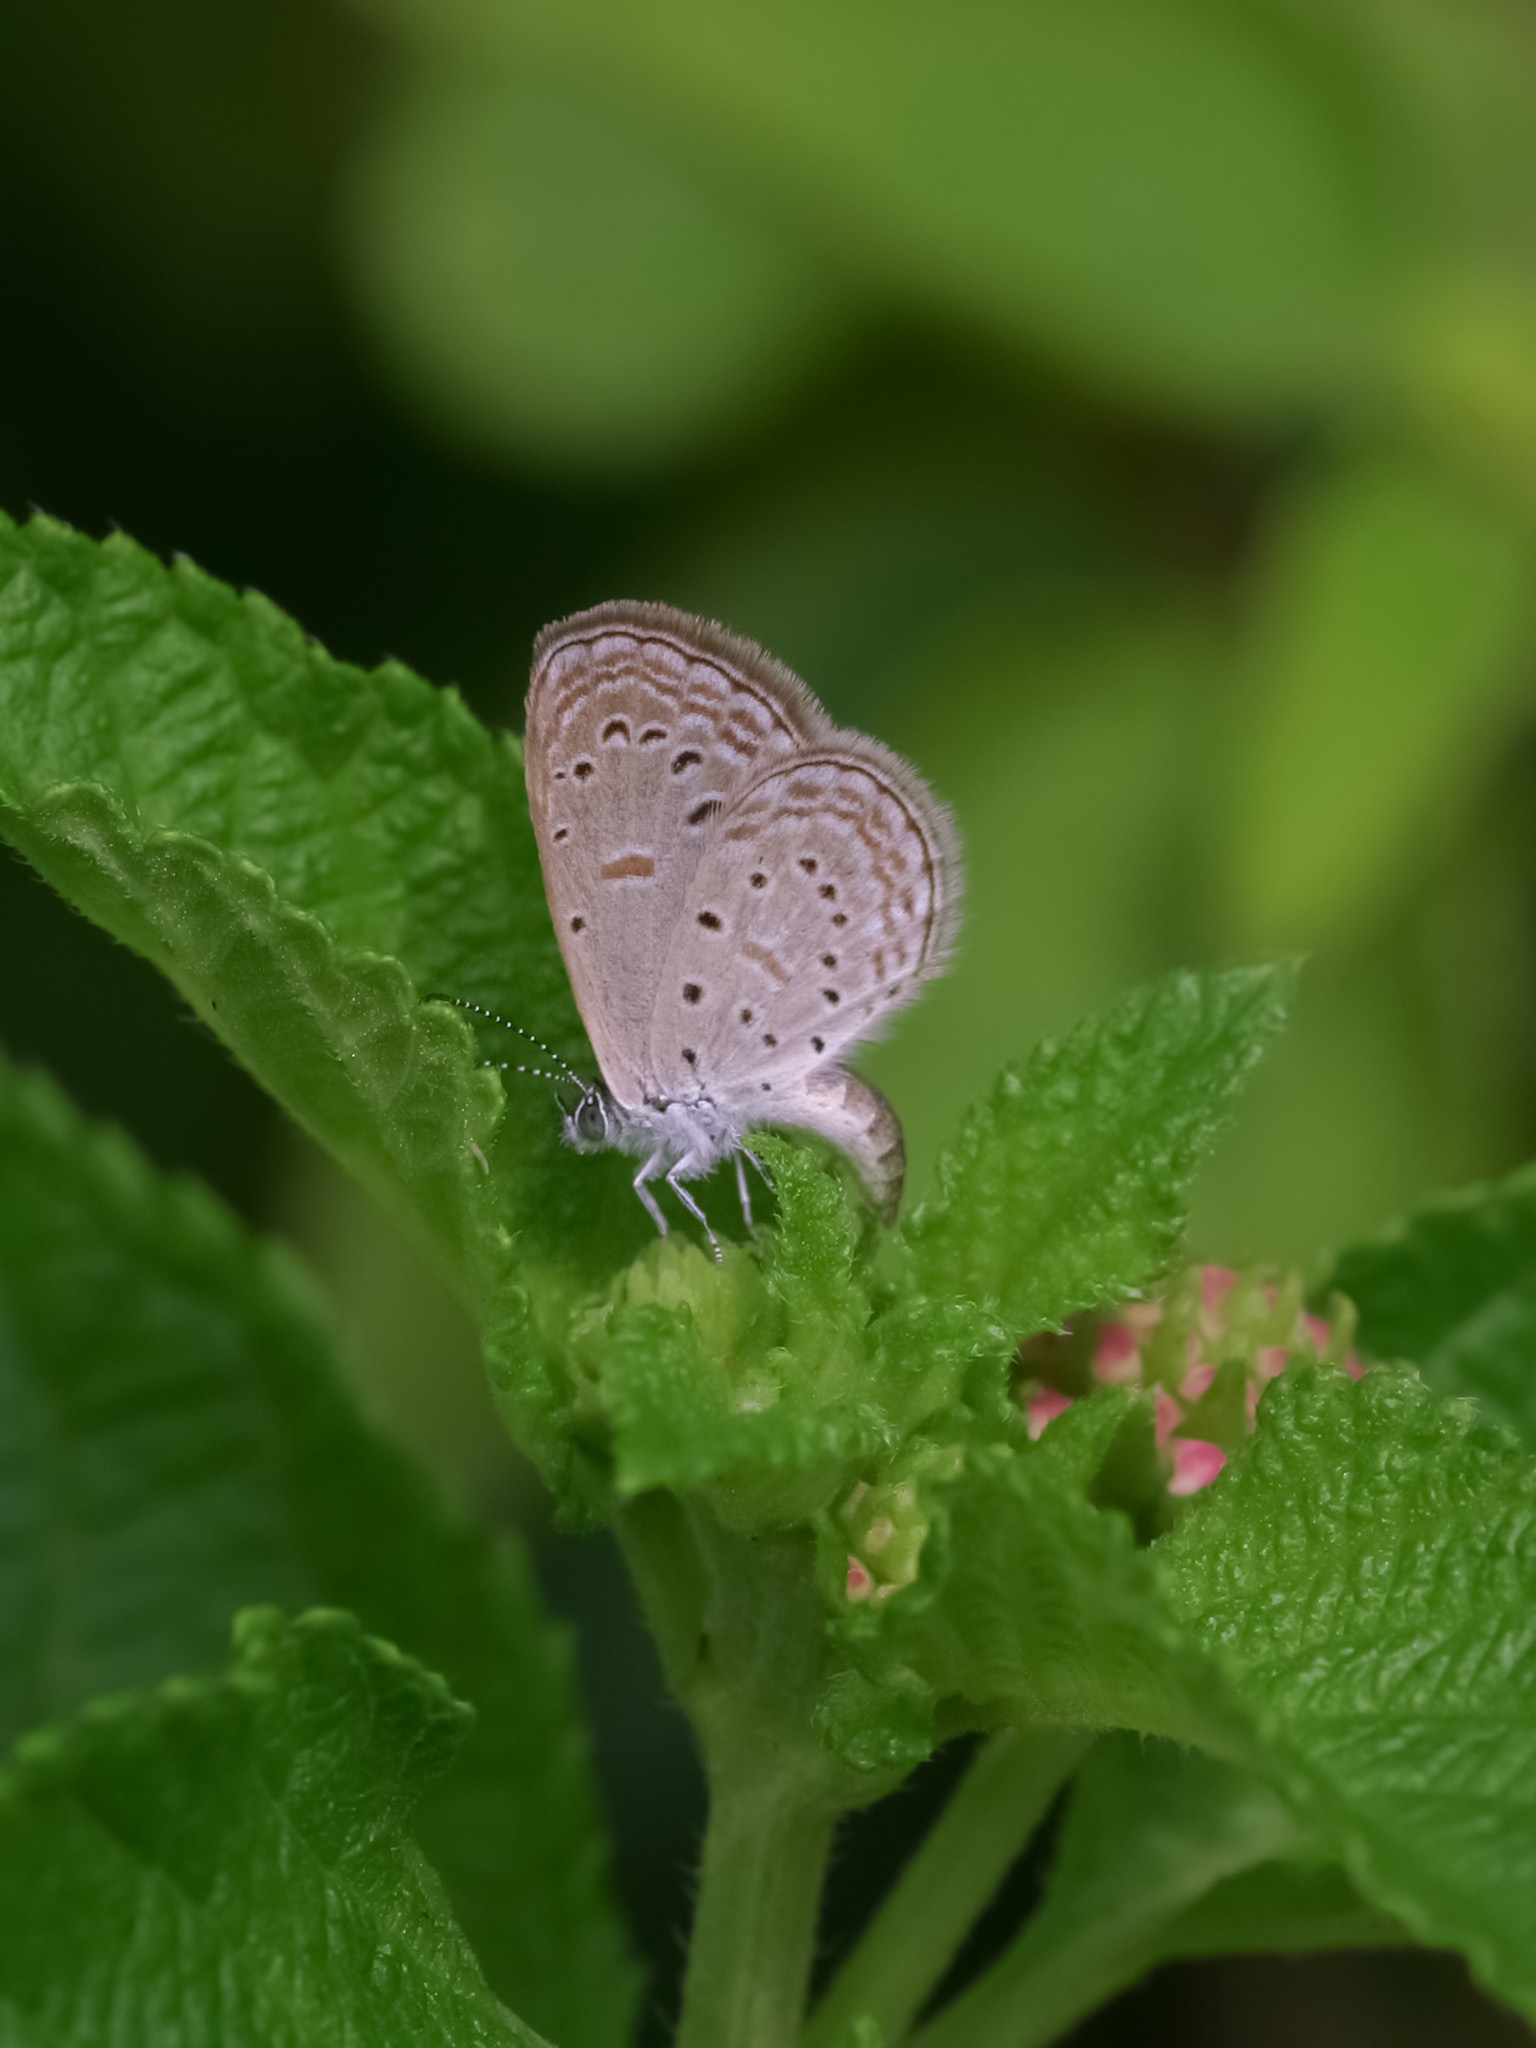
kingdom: Animalia
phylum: Arthropoda
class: Insecta
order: Lepidoptera
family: Lycaenidae
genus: Zizula
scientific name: Zizula hylax
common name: Gaika blue
